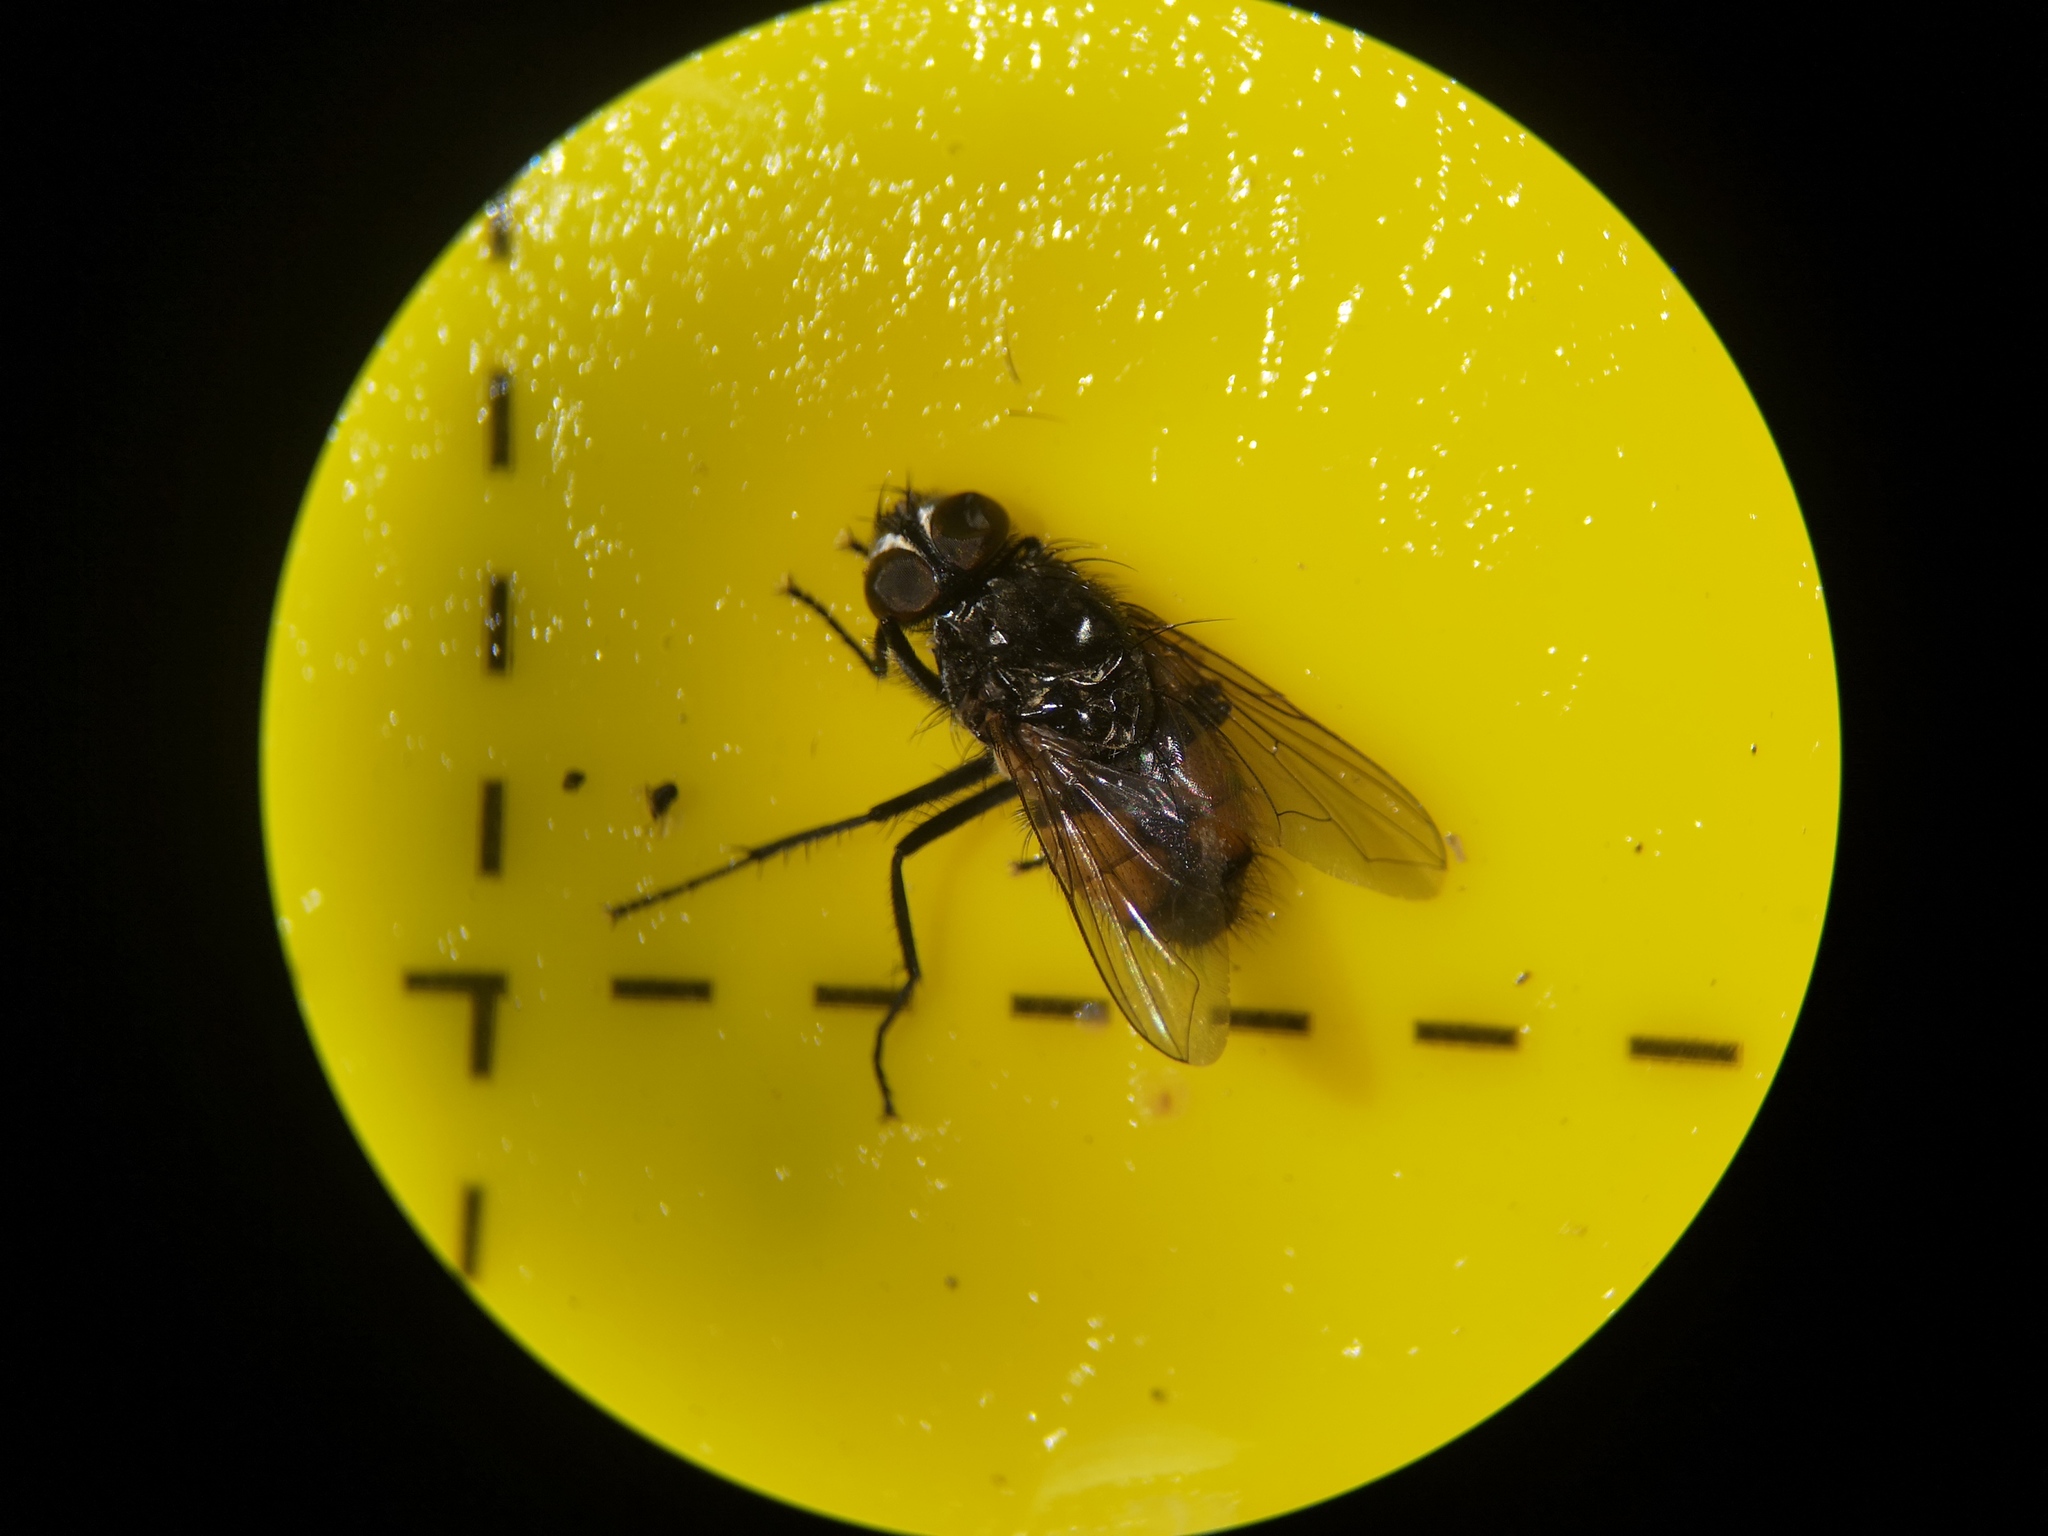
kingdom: Animalia
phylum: Arthropoda
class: Insecta
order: Diptera
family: Muscidae
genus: Musca
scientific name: Musca autumnalis
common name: Face fly
